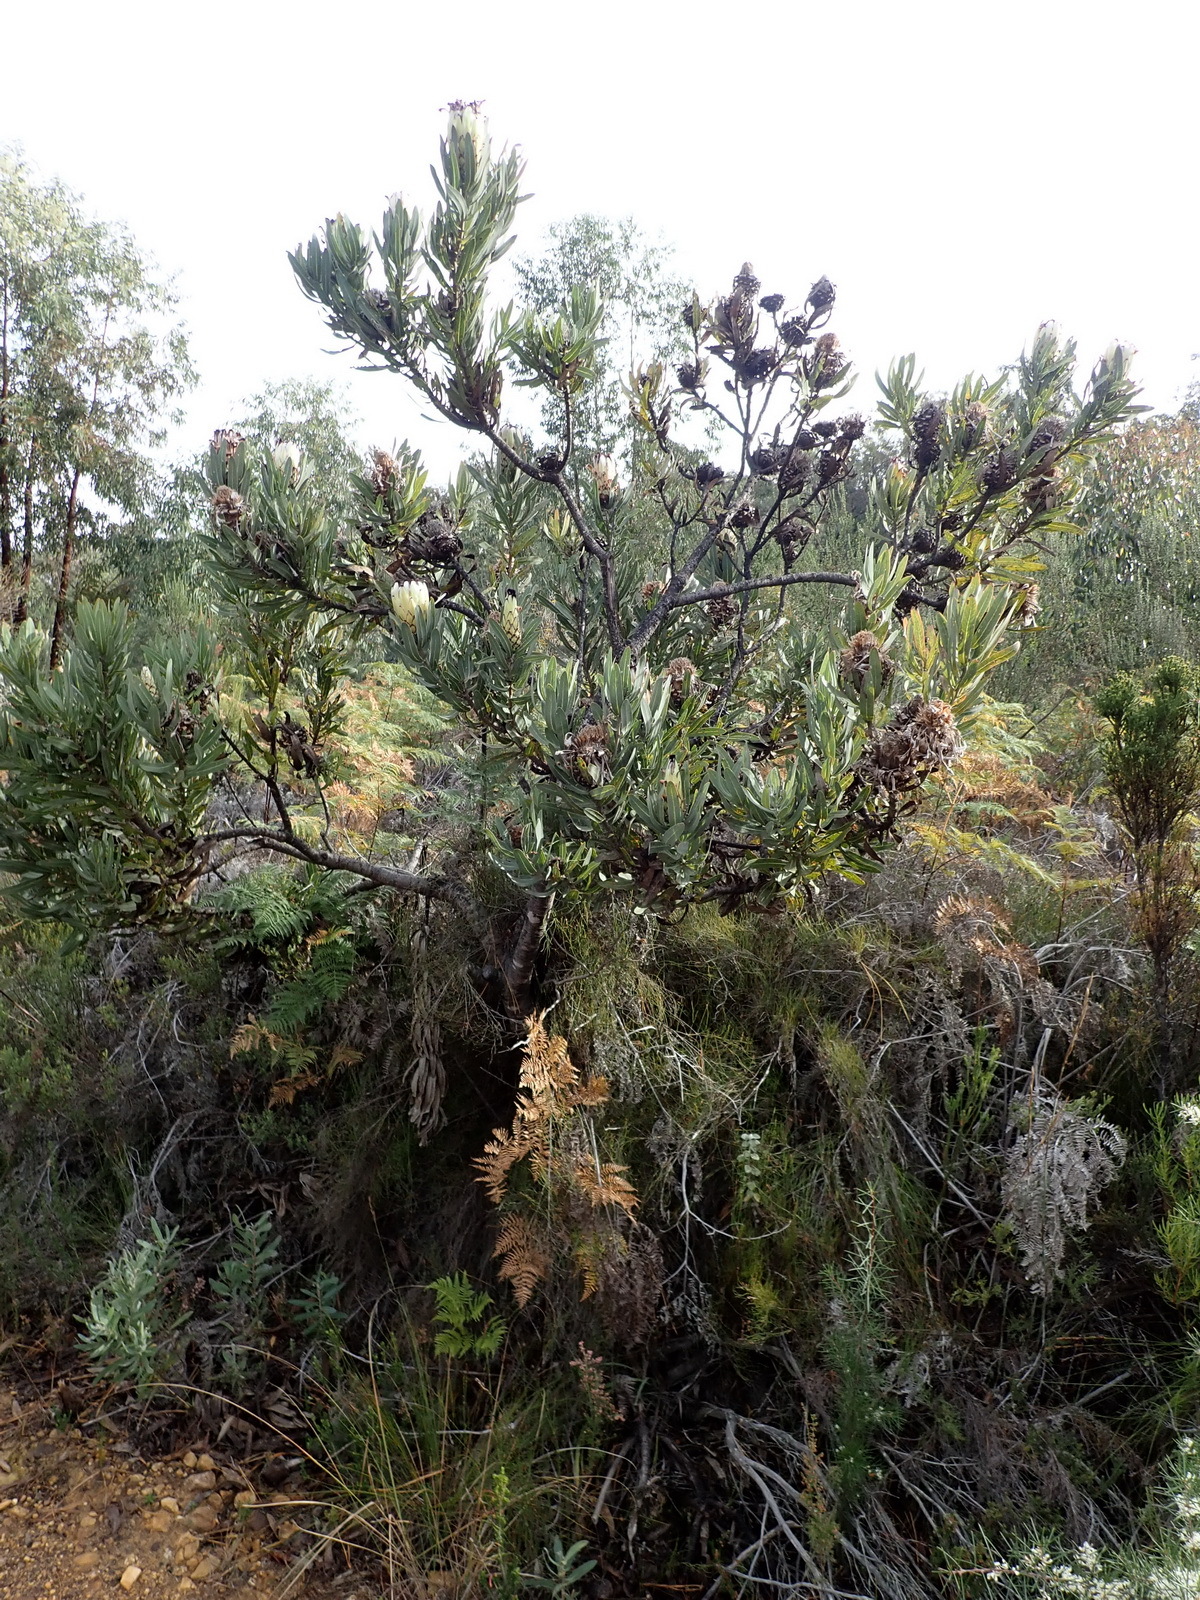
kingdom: Plantae
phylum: Tracheophyta
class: Magnoliopsida
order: Proteales
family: Proteaceae
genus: Protea
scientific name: Protea neriifolia
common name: Blue sugarbush
